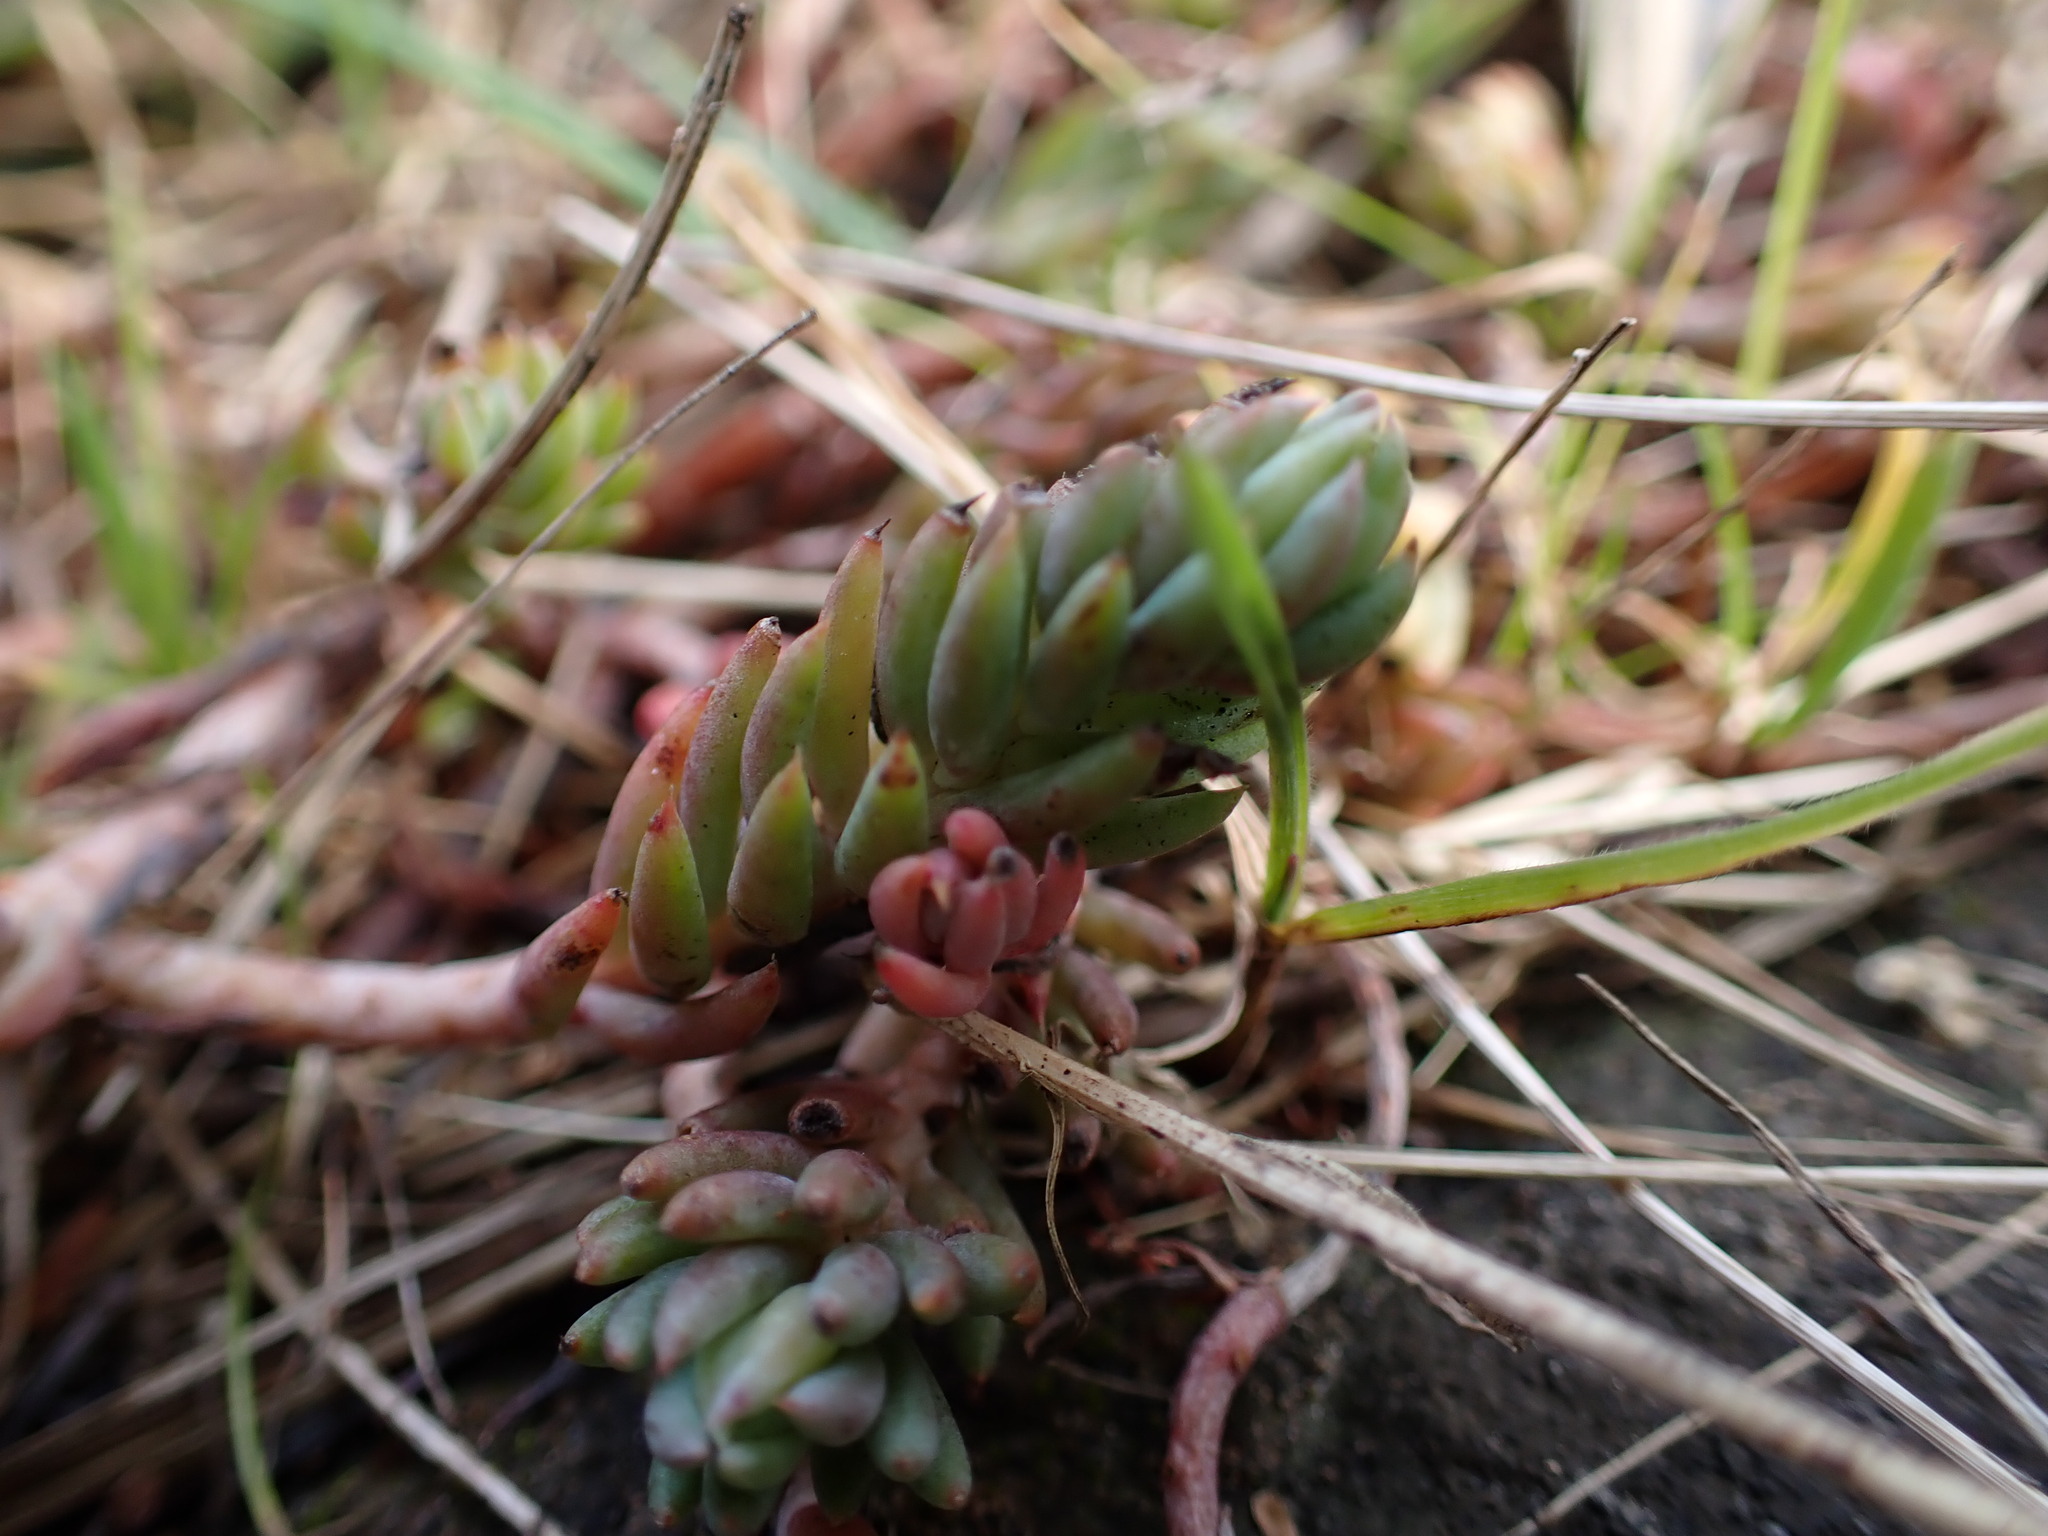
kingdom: Plantae
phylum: Tracheophyta
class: Magnoliopsida
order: Saxifragales
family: Crassulaceae
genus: Sedum
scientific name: Sedum lanceolatum
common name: Common stonecrop
